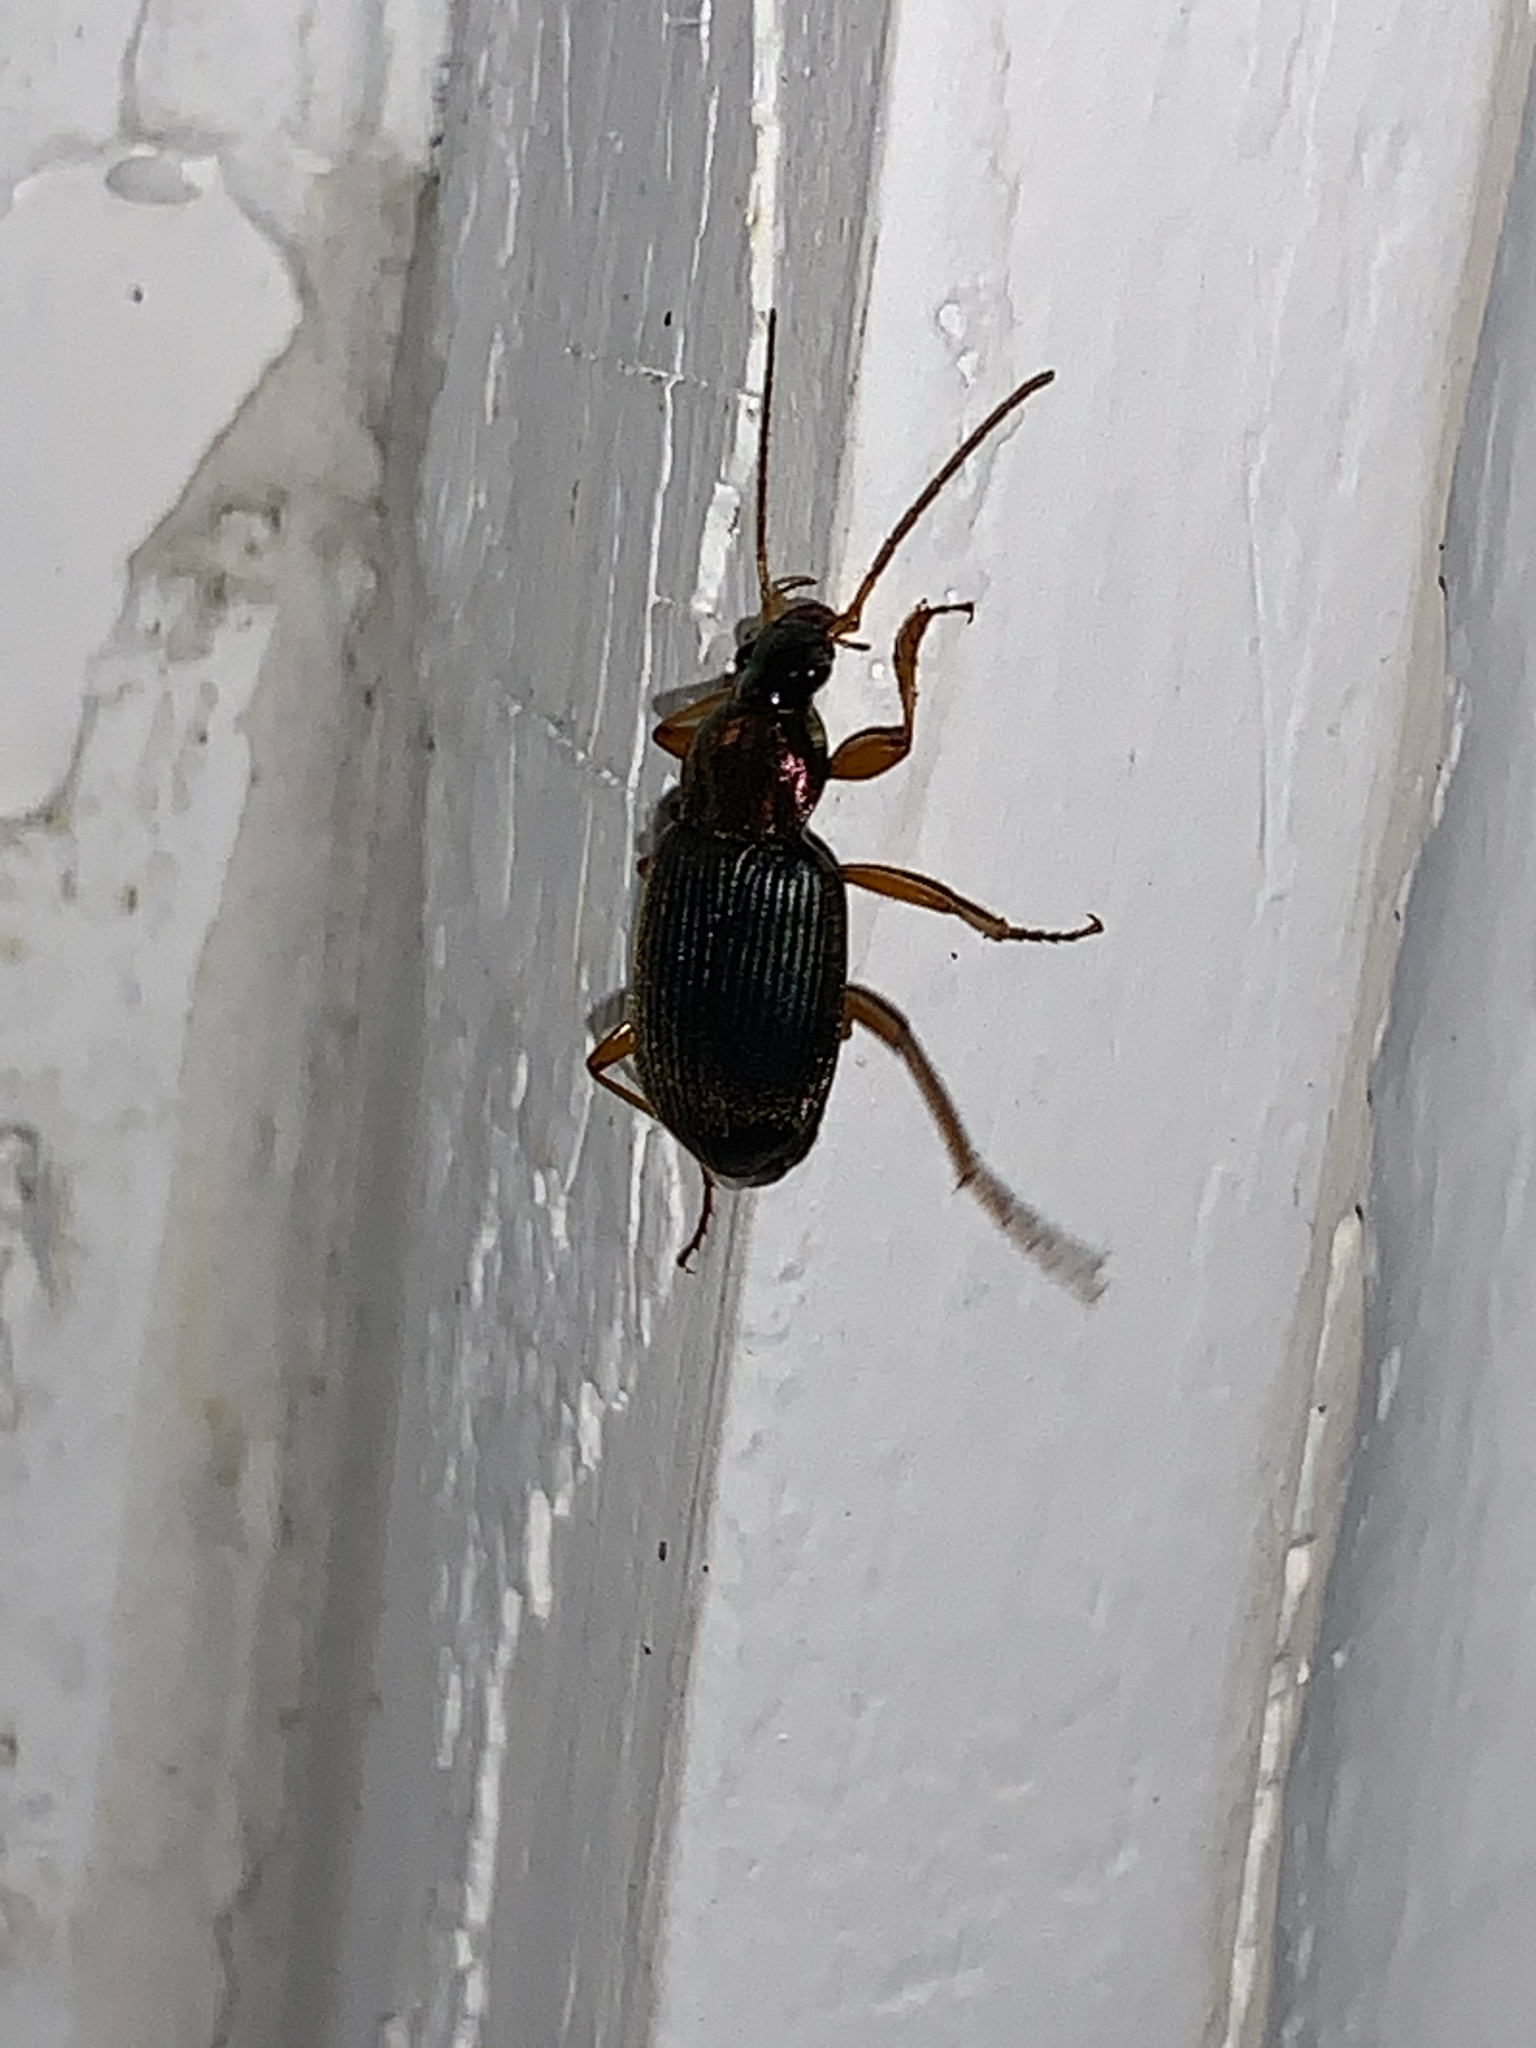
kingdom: Animalia
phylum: Arthropoda
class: Insecta
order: Coleoptera
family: Carabidae
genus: Chlaenius
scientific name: Chlaenius
